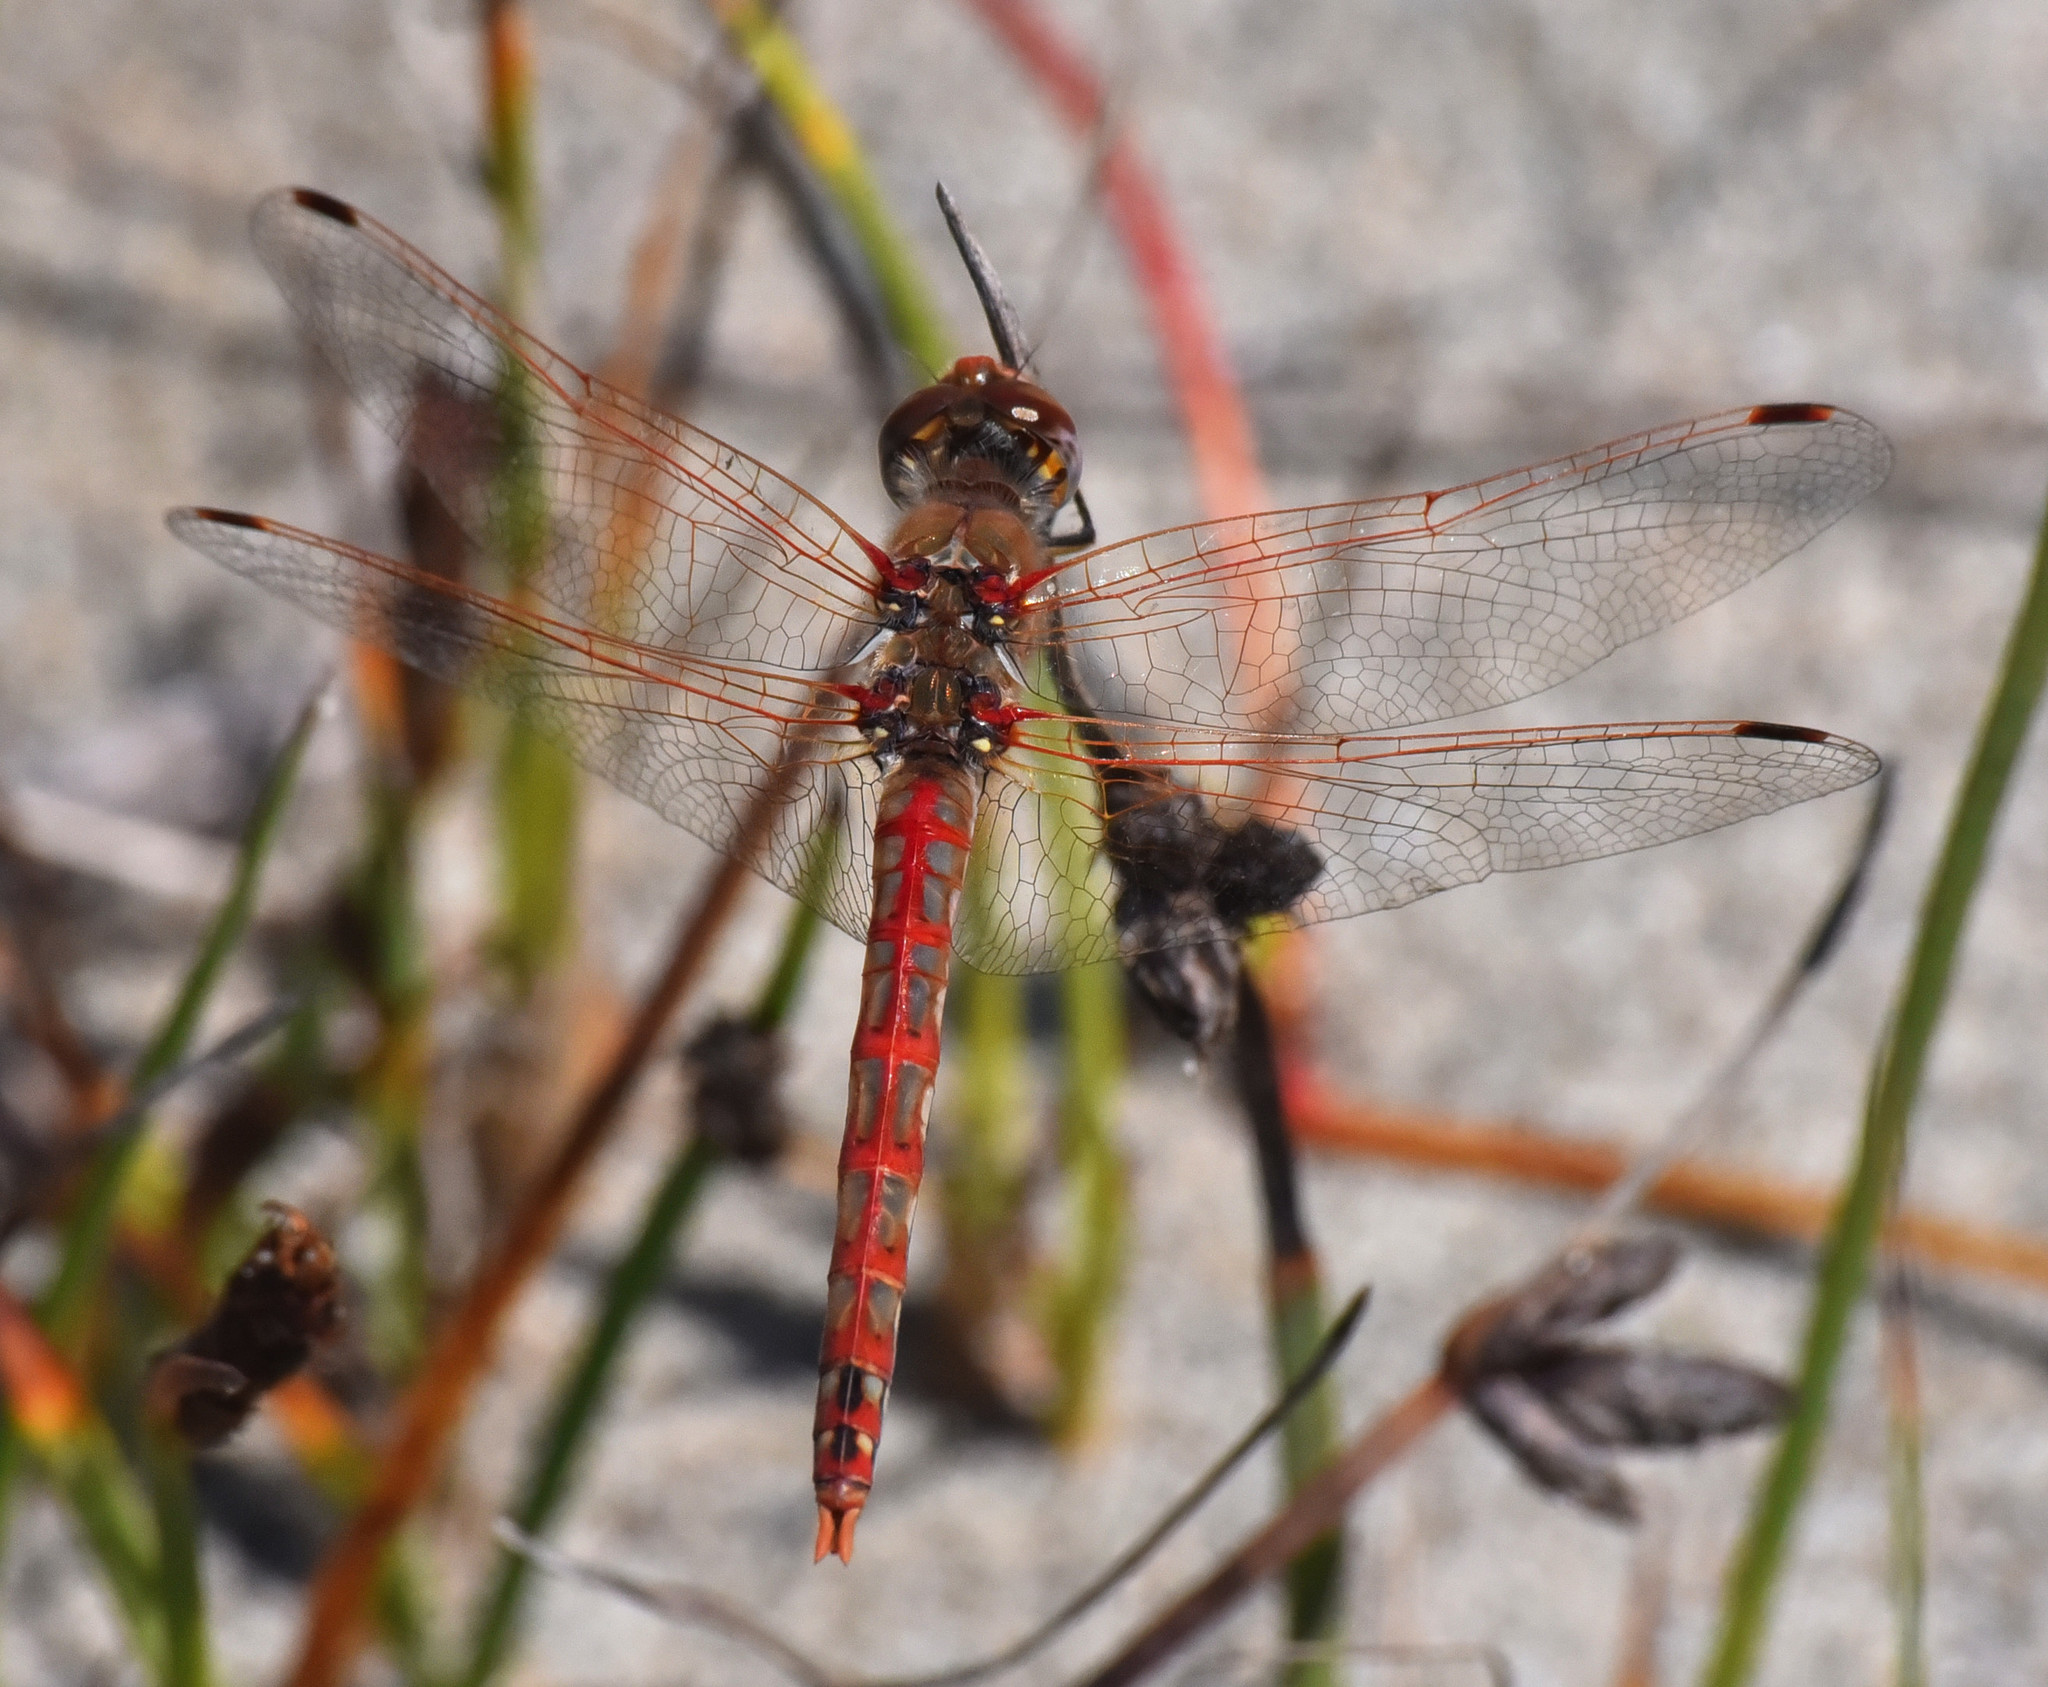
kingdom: Animalia
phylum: Arthropoda
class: Insecta
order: Odonata
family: Libellulidae
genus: Sympetrum
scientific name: Sympetrum corruptum
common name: Variegated meadowhawk
